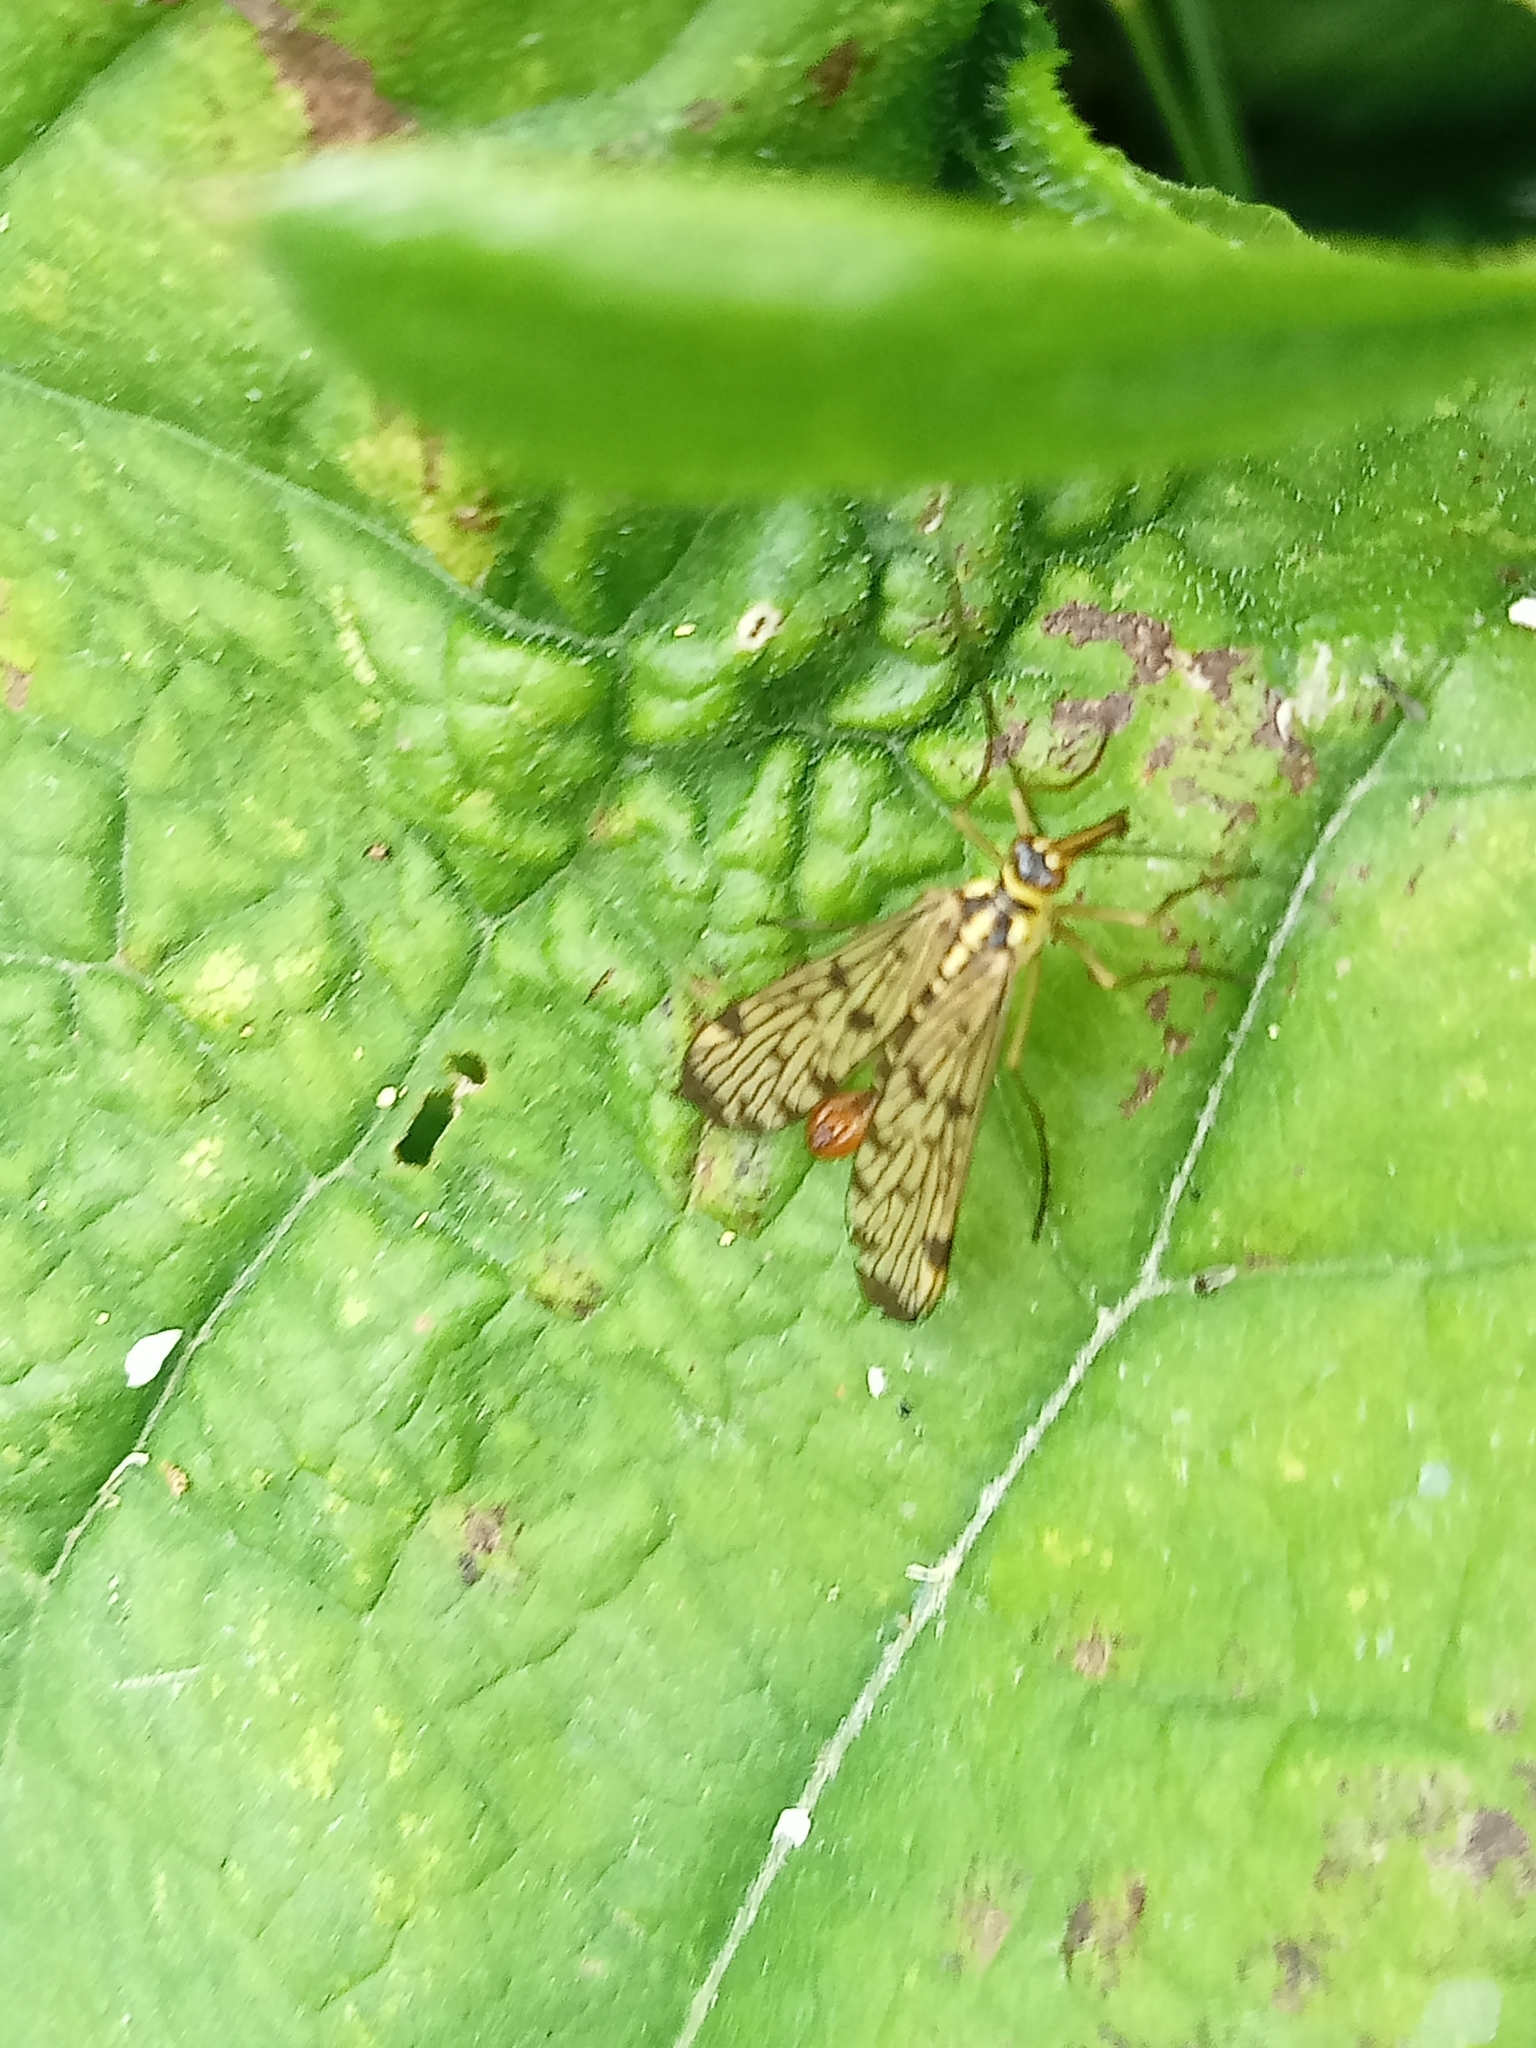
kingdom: Animalia
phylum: Arthropoda
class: Insecta
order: Mecoptera
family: Panorpidae
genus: Panorpa
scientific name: Panorpa germanica
